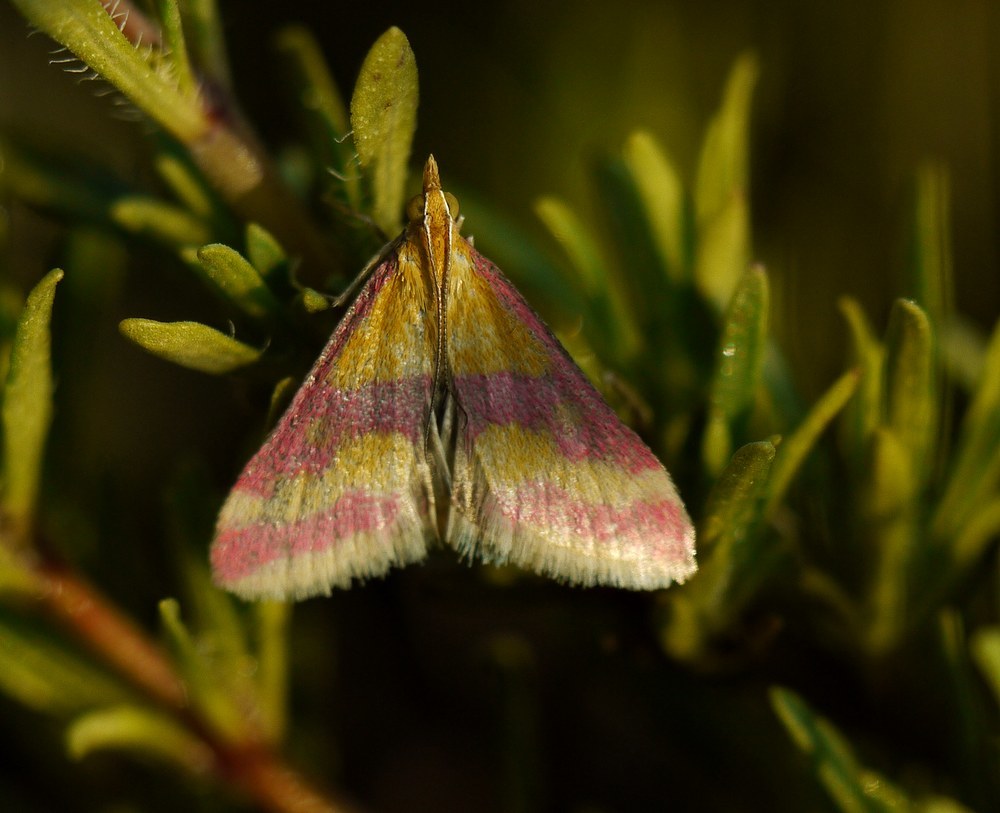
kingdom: Animalia
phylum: Arthropoda
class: Insecta
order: Lepidoptera
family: Crambidae
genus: Pyrausta
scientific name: Pyrausta sanguinalis
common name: Scarce crimson and gold
